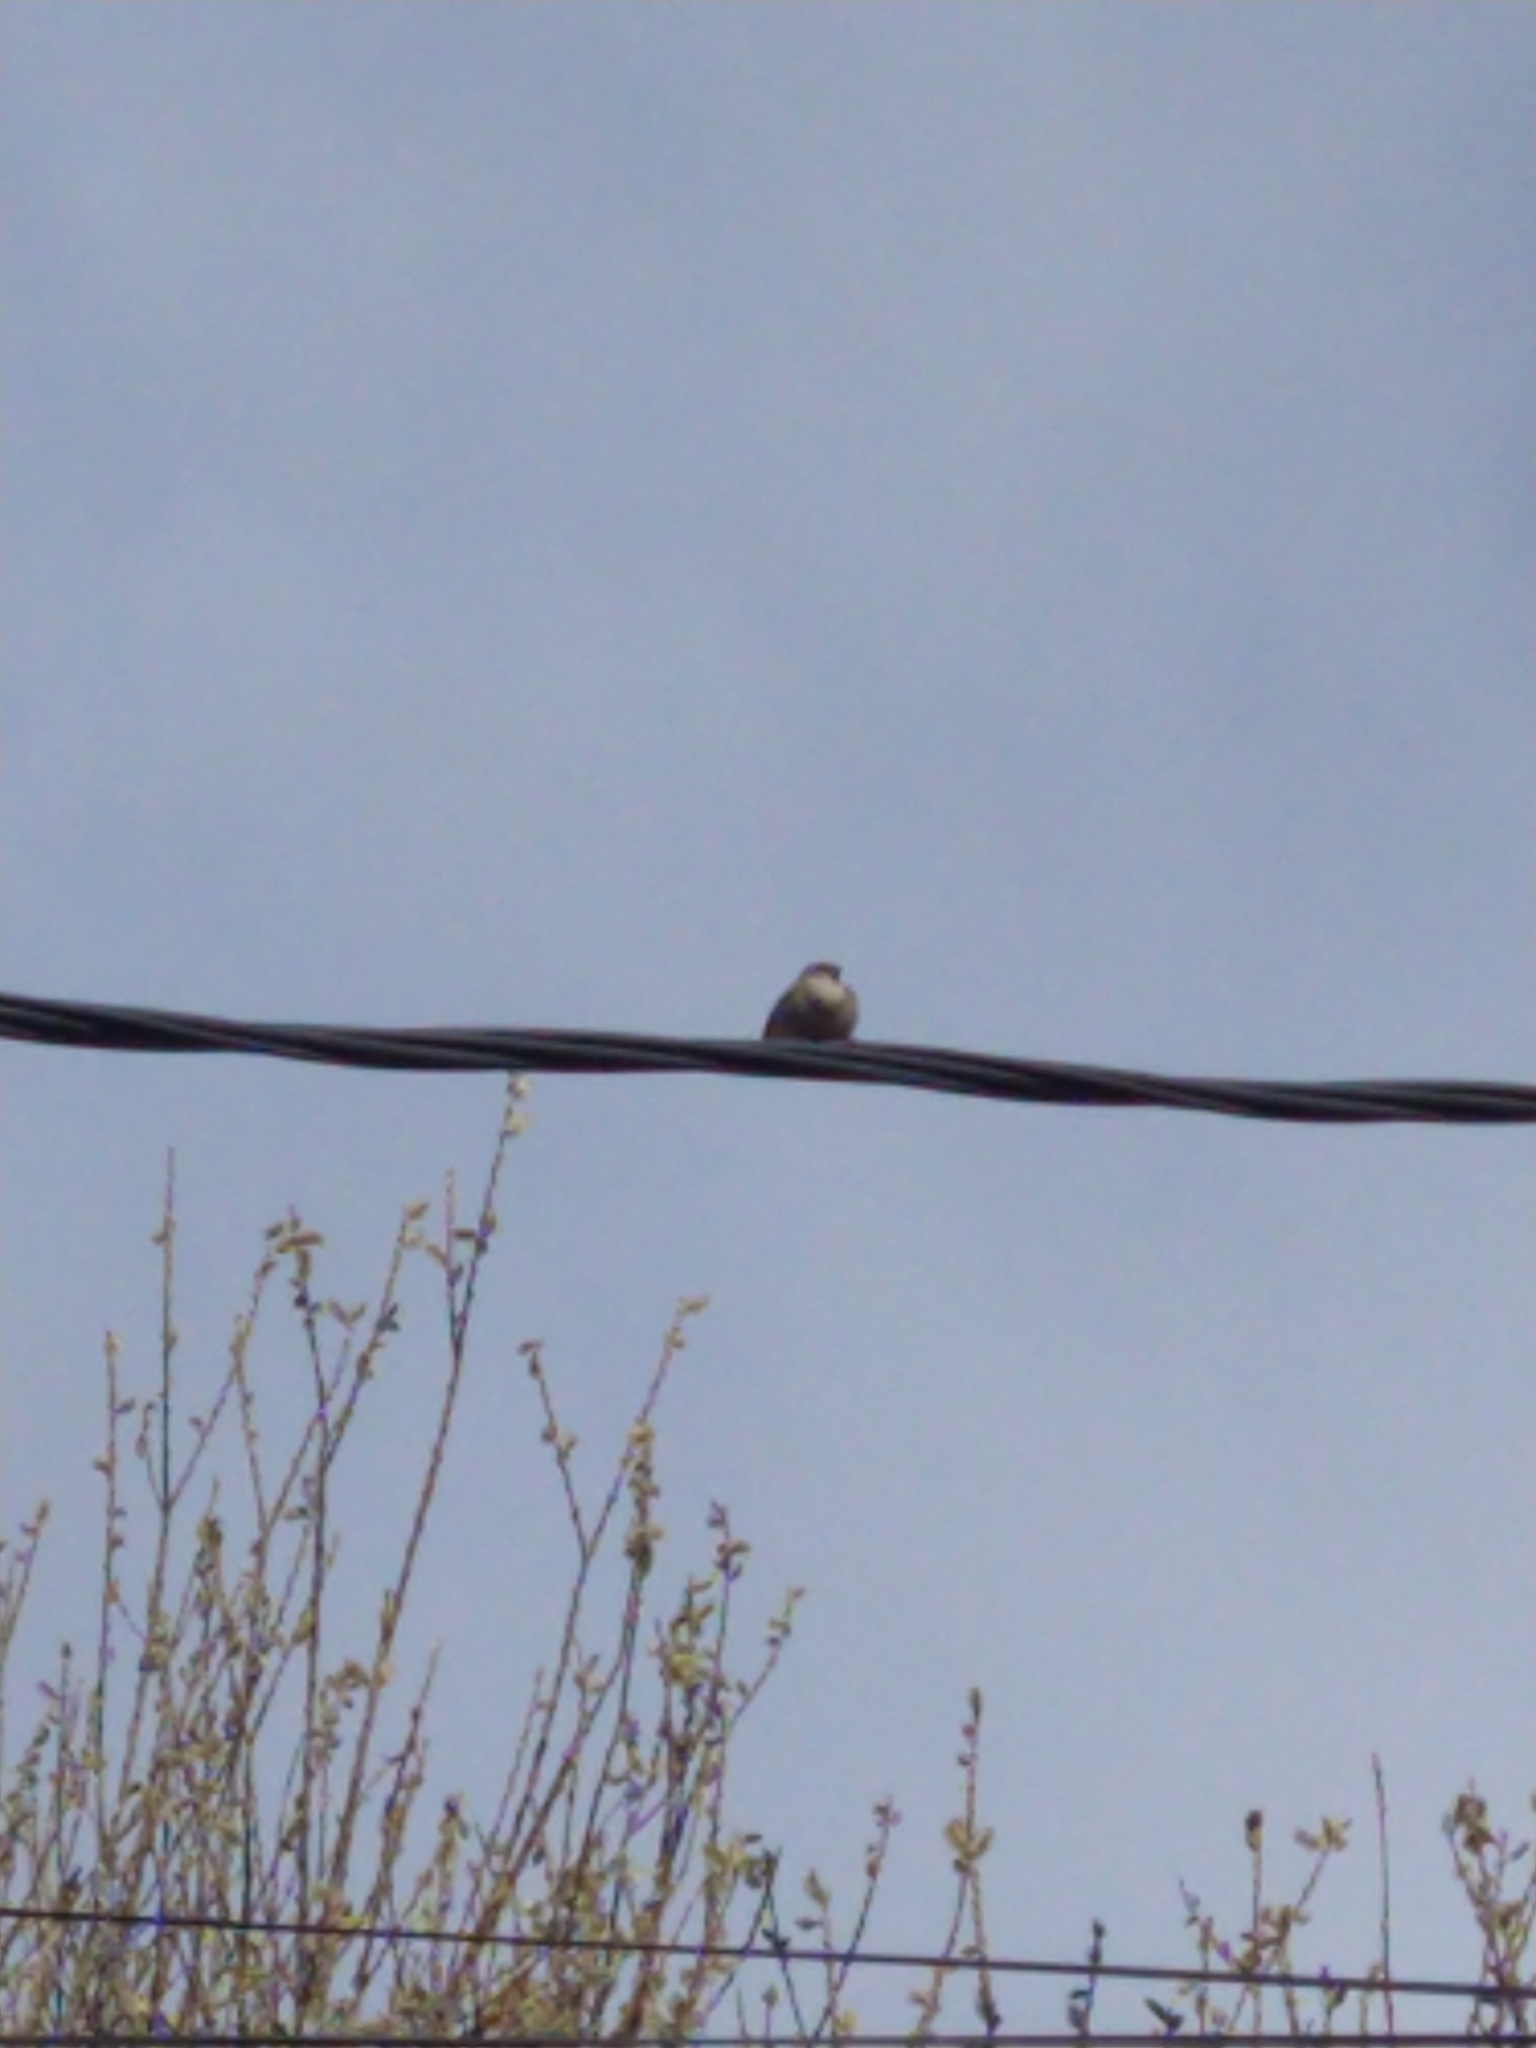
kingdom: Animalia
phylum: Chordata
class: Aves
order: Passeriformes
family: Passeridae
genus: Passer
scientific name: Passer domesticus
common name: House sparrow
